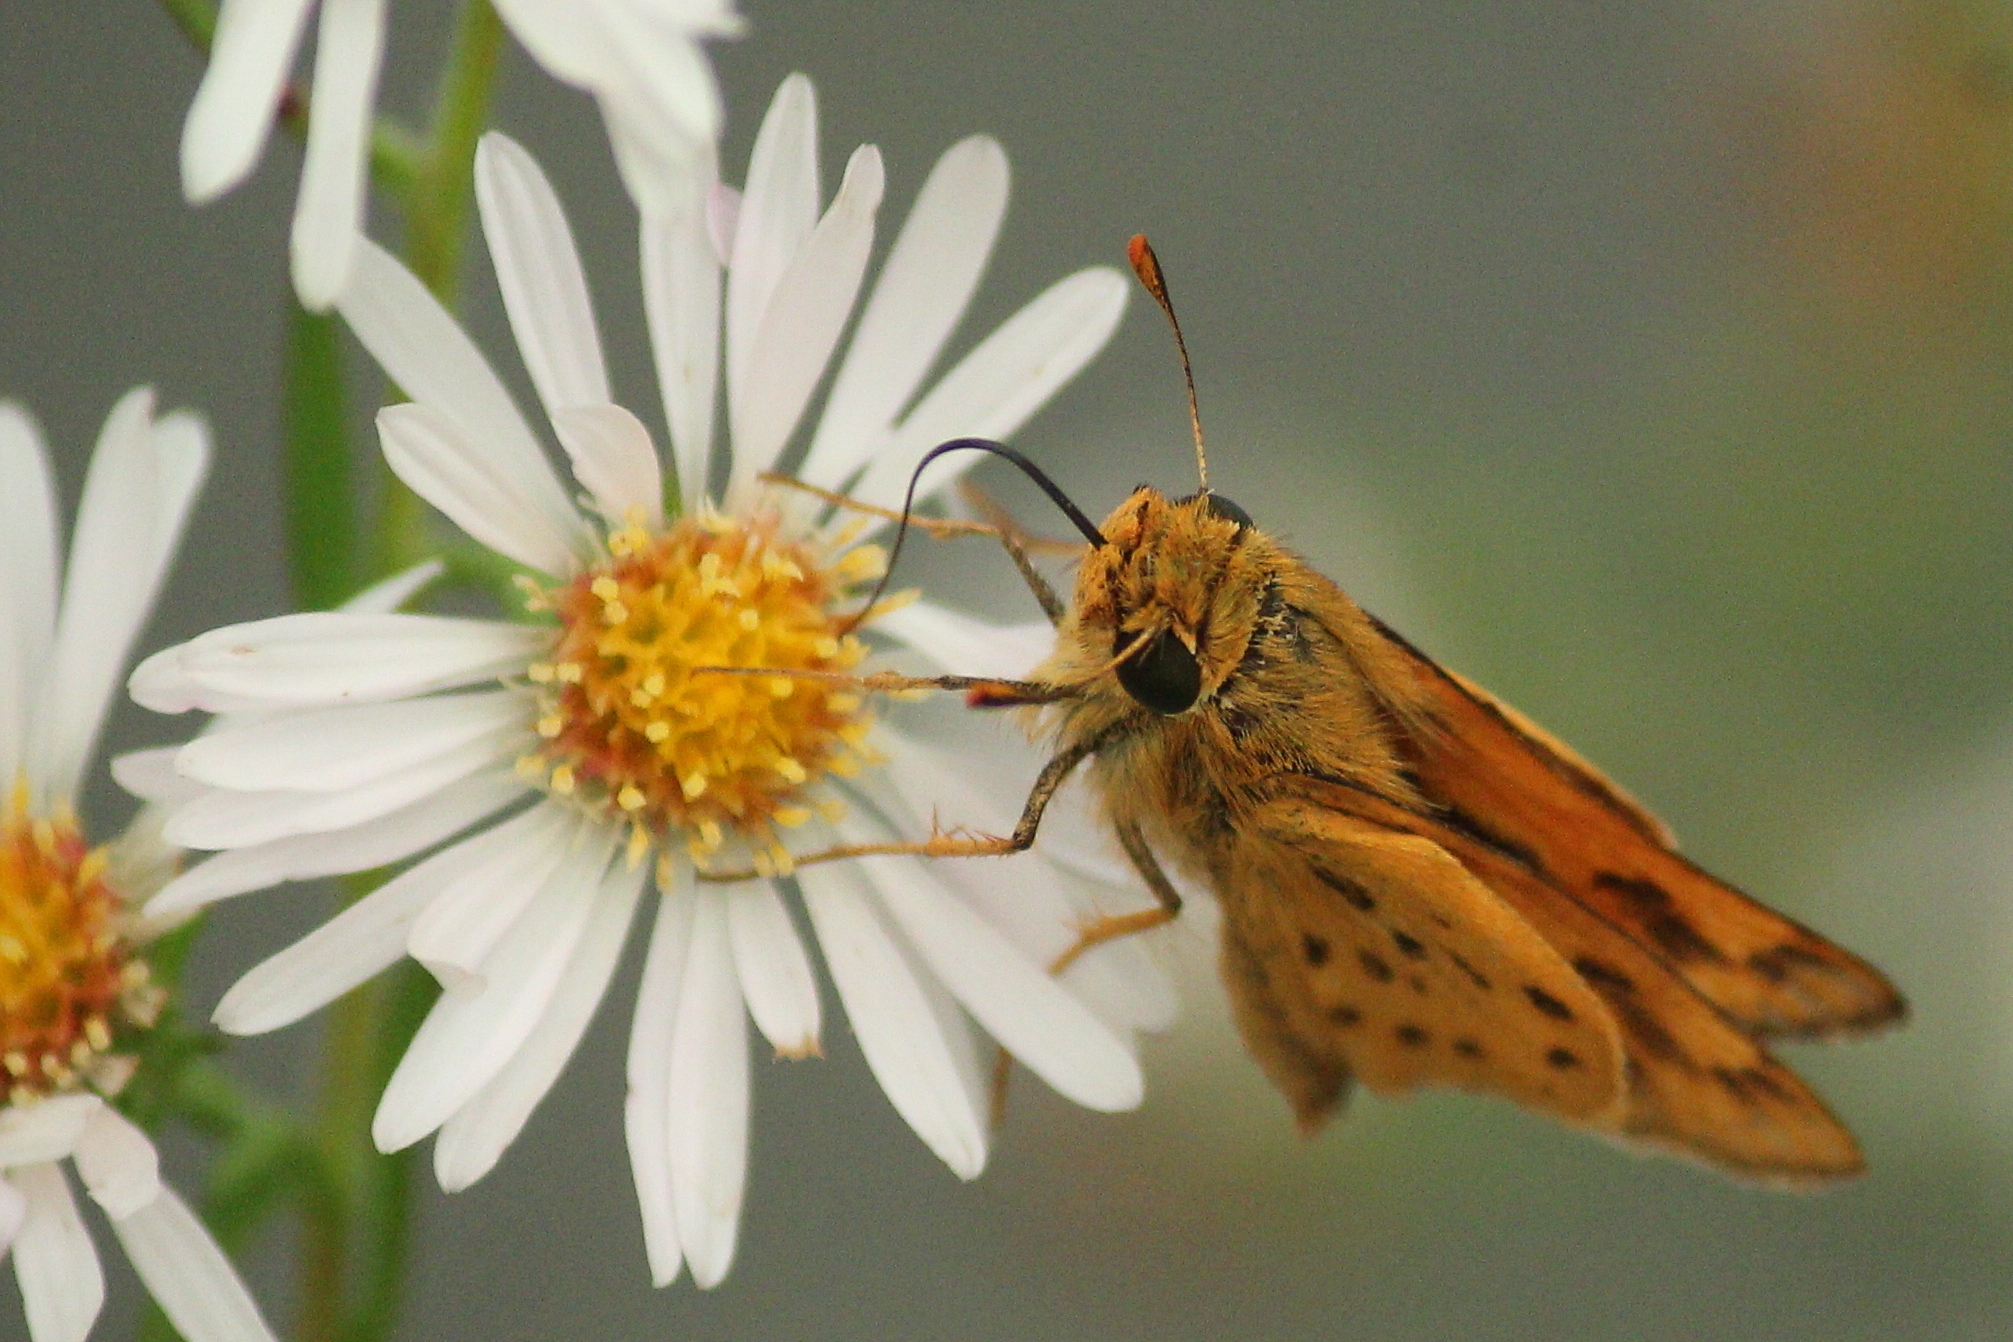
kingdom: Animalia
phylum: Arthropoda
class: Insecta
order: Lepidoptera
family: Hesperiidae
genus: Hylephila
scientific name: Hylephila phyleus
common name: Fiery skipper
